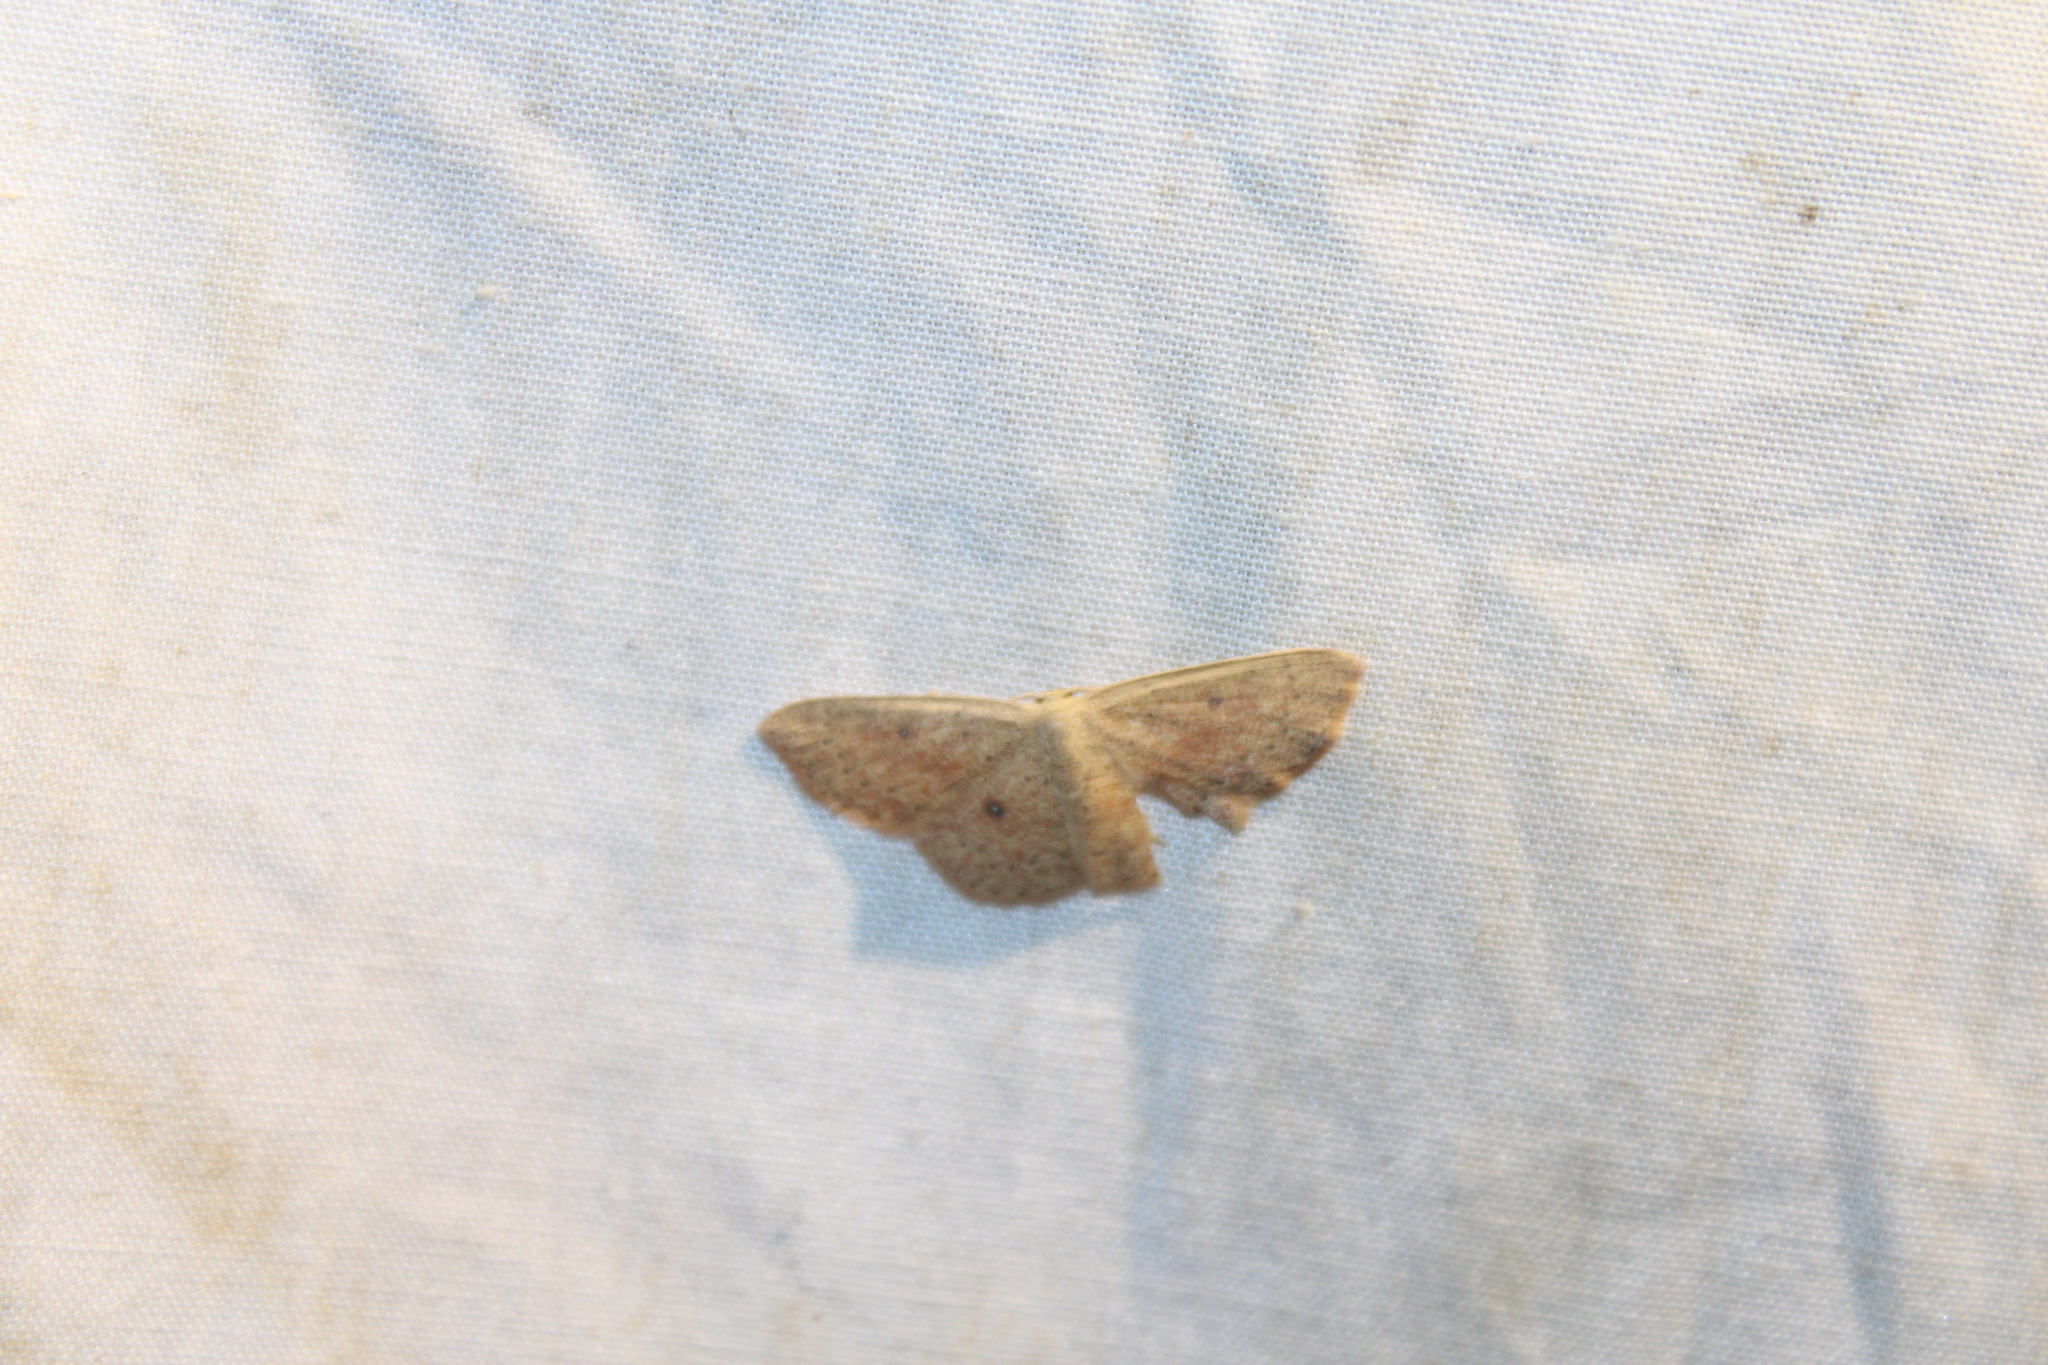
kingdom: Animalia
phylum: Arthropoda
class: Insecta
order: Lepidoptera
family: Geometridae
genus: Cyclophora
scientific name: Cyclophora packardi
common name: Packard's wave
